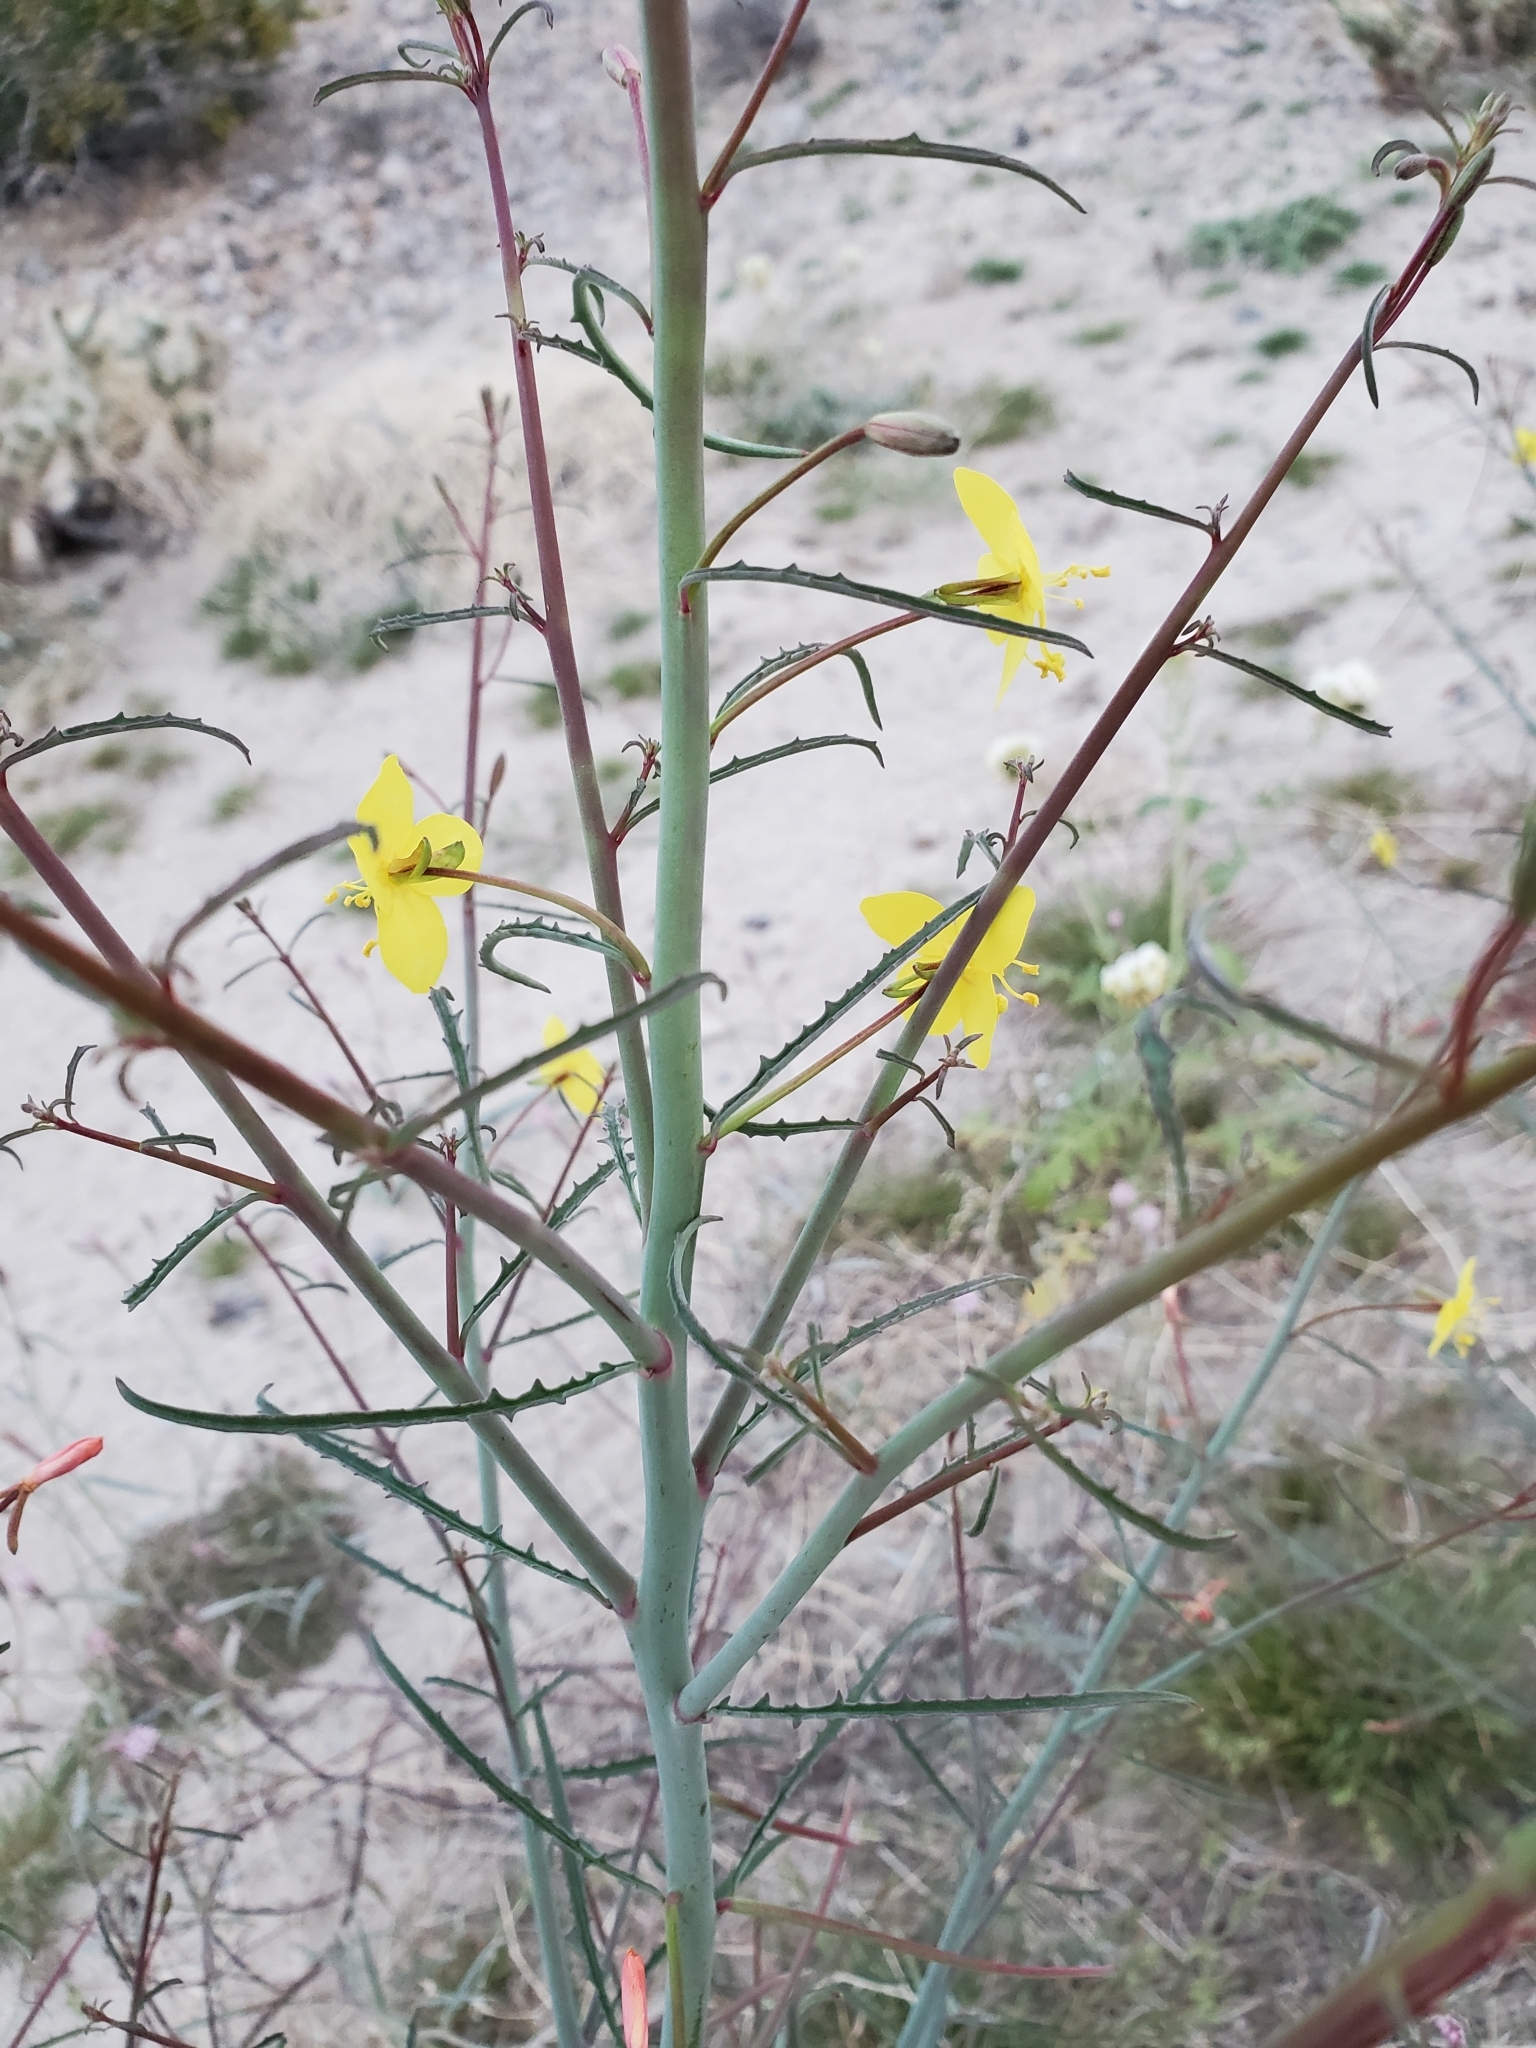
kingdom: Plantae
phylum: Tracheophyta
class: Magnoliopsida
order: Myrtales
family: Onagraceae
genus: Eulobus
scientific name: Eulobus californicus
